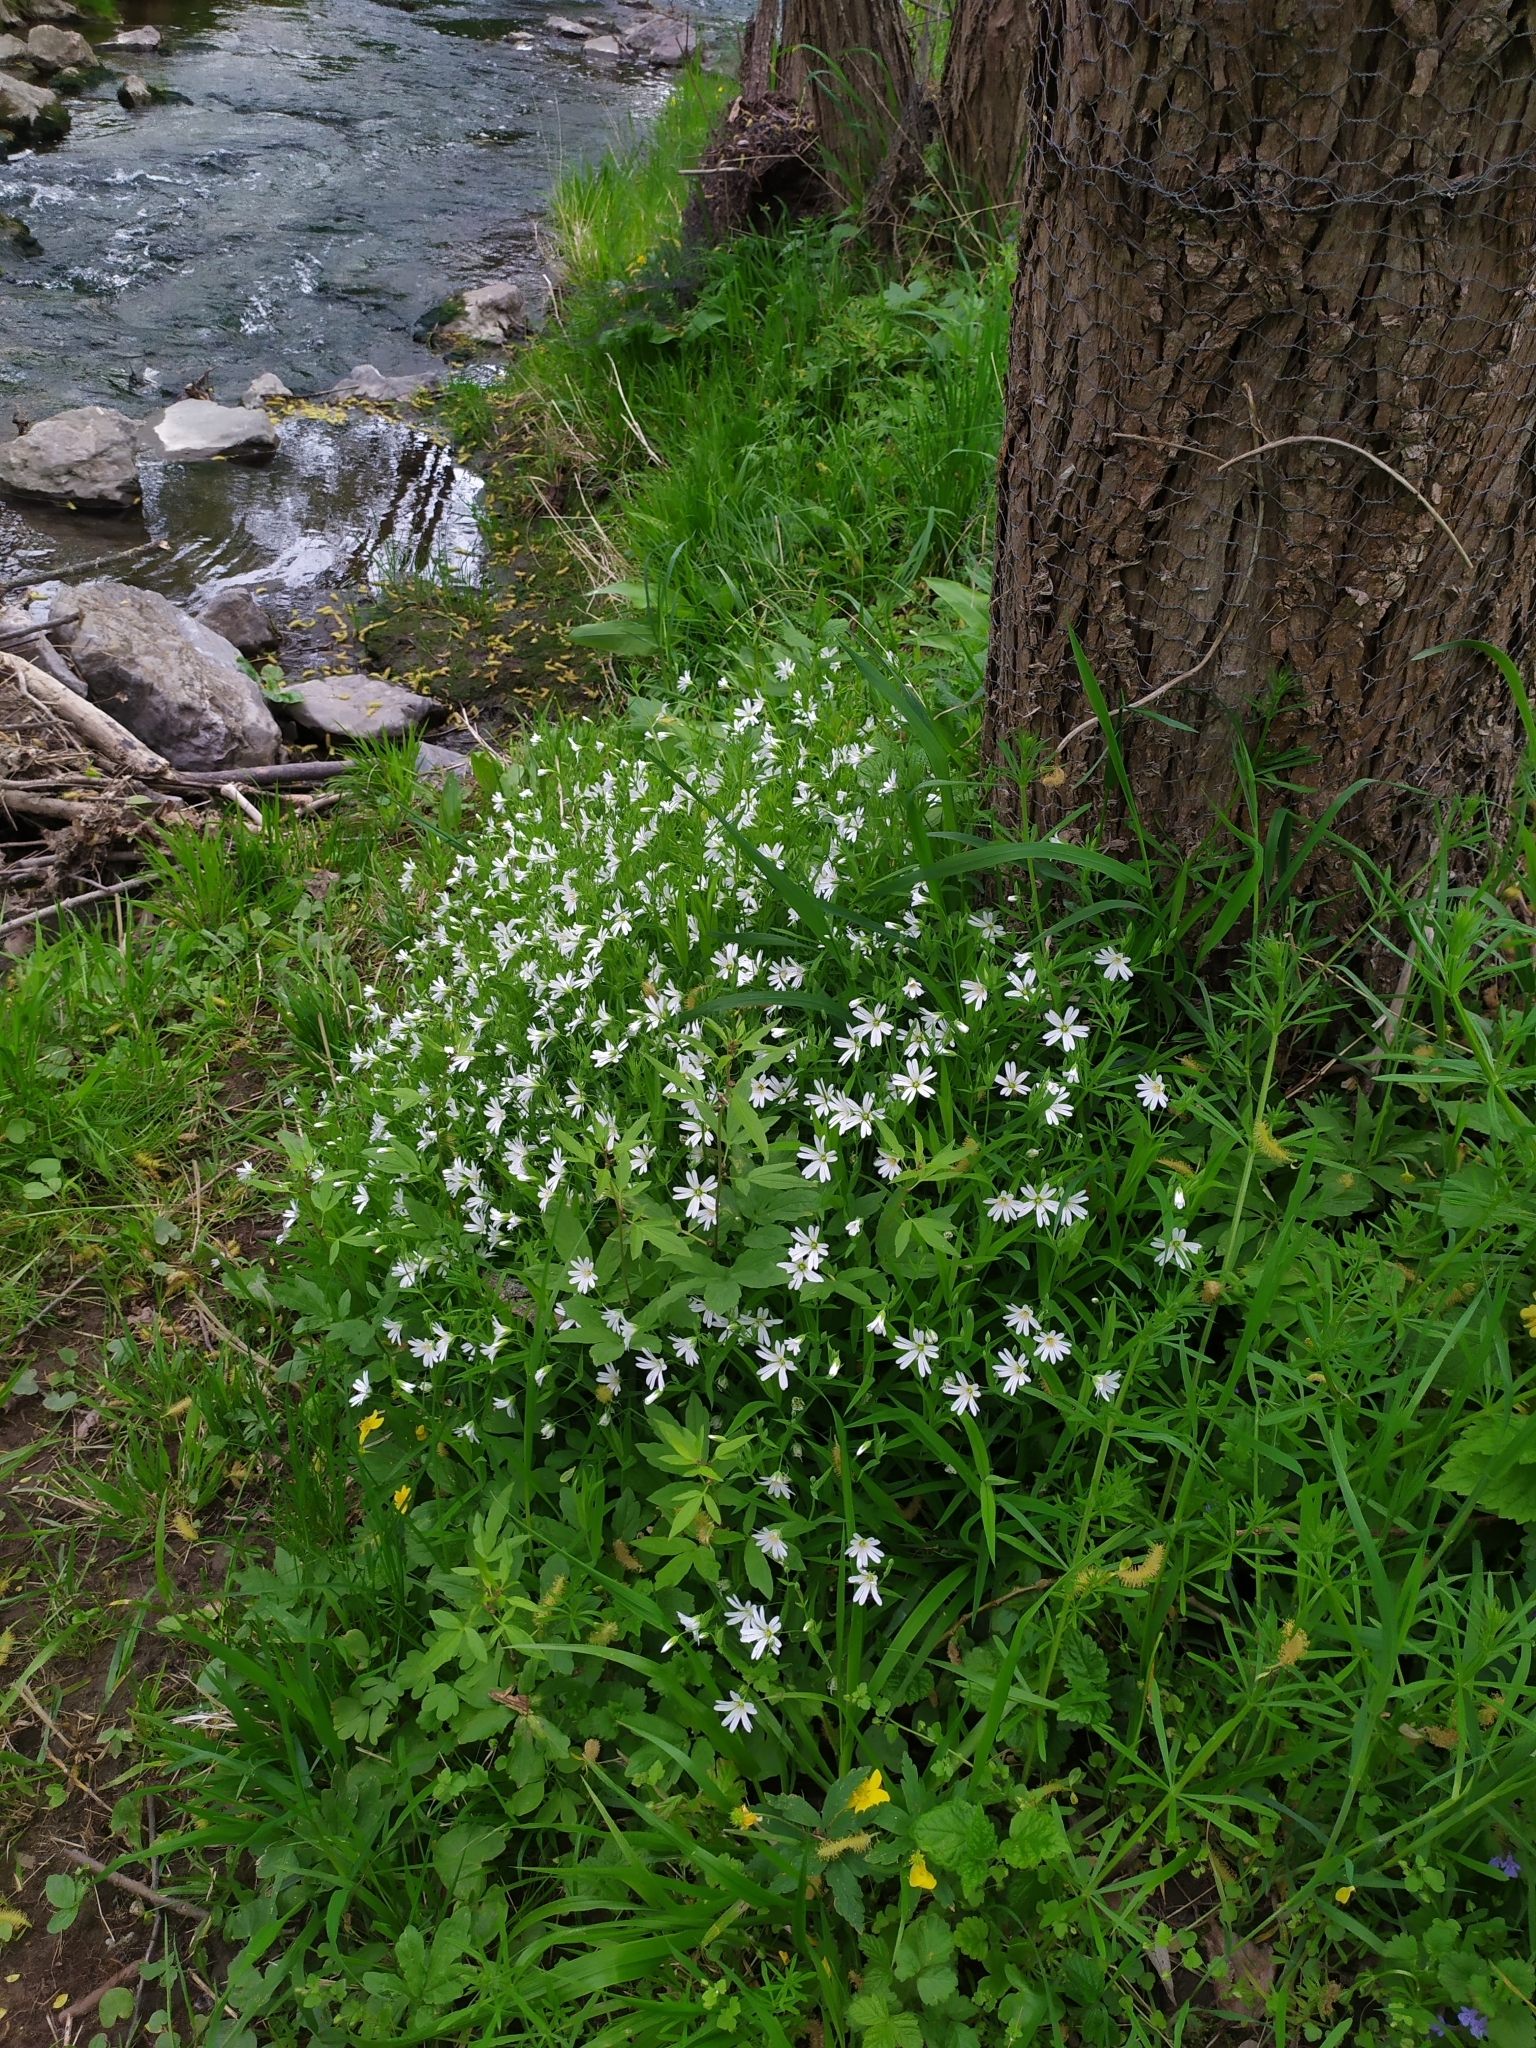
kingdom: Plantae
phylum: Tracheophyta
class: Magnoliopsida
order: Caryophyllales
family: Caryophyllaceae
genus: Rabelera
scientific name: Rabelera holostea
